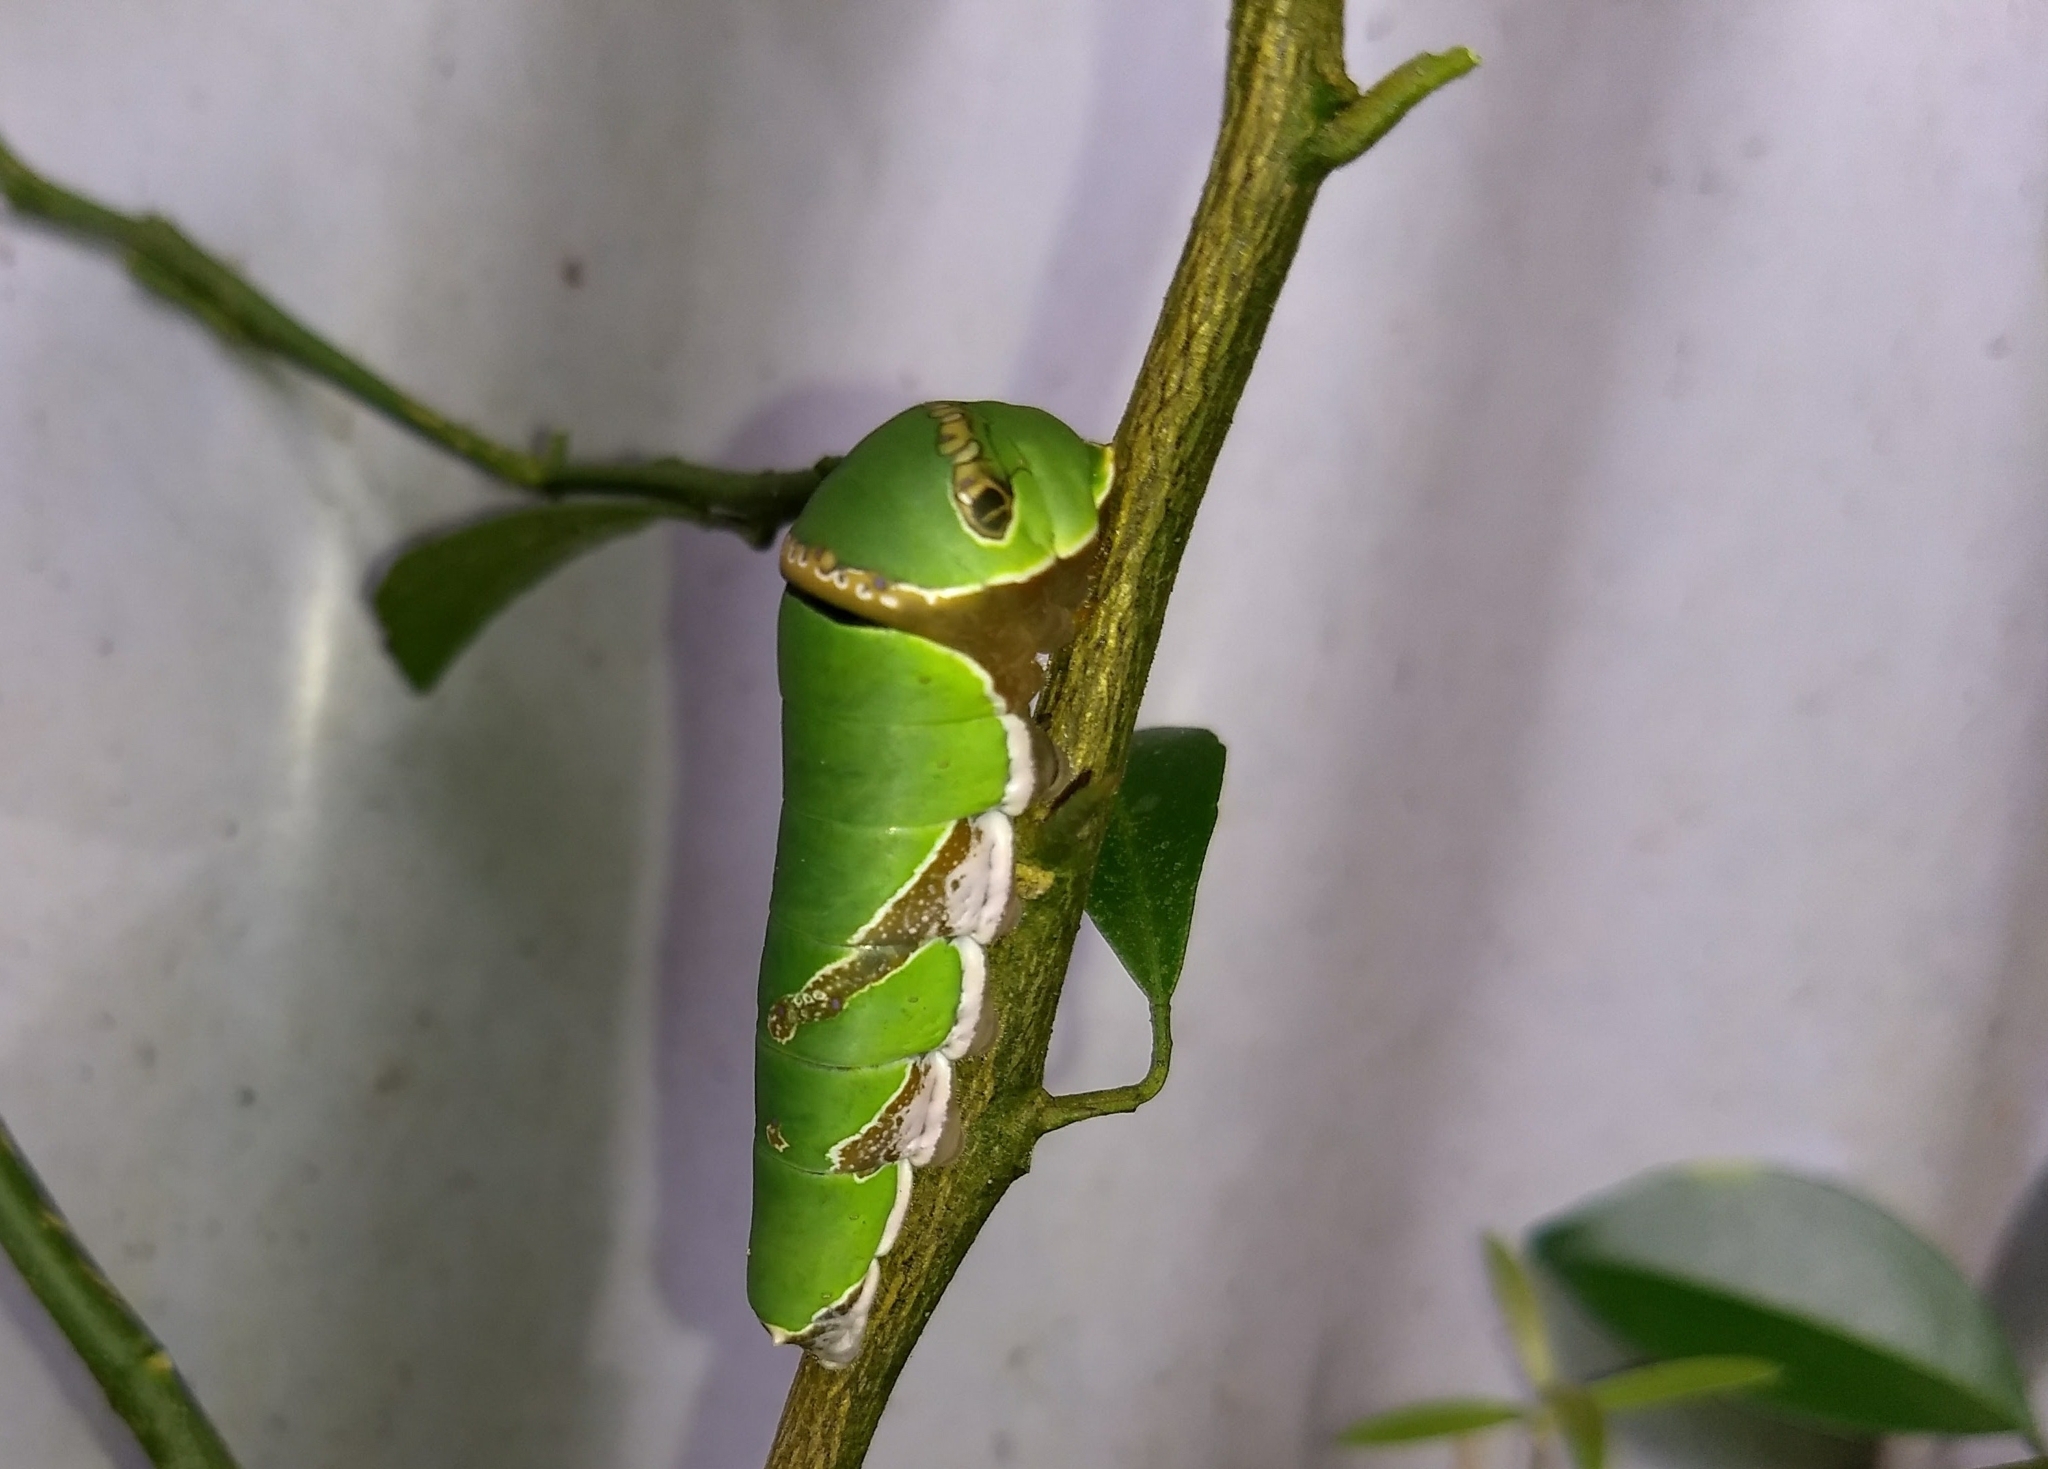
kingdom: Animalia
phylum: Arthropoda
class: Insecta
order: Lepidoptera
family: Papilionidae
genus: Papilio
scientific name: Papilio polytes
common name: Common mormon
